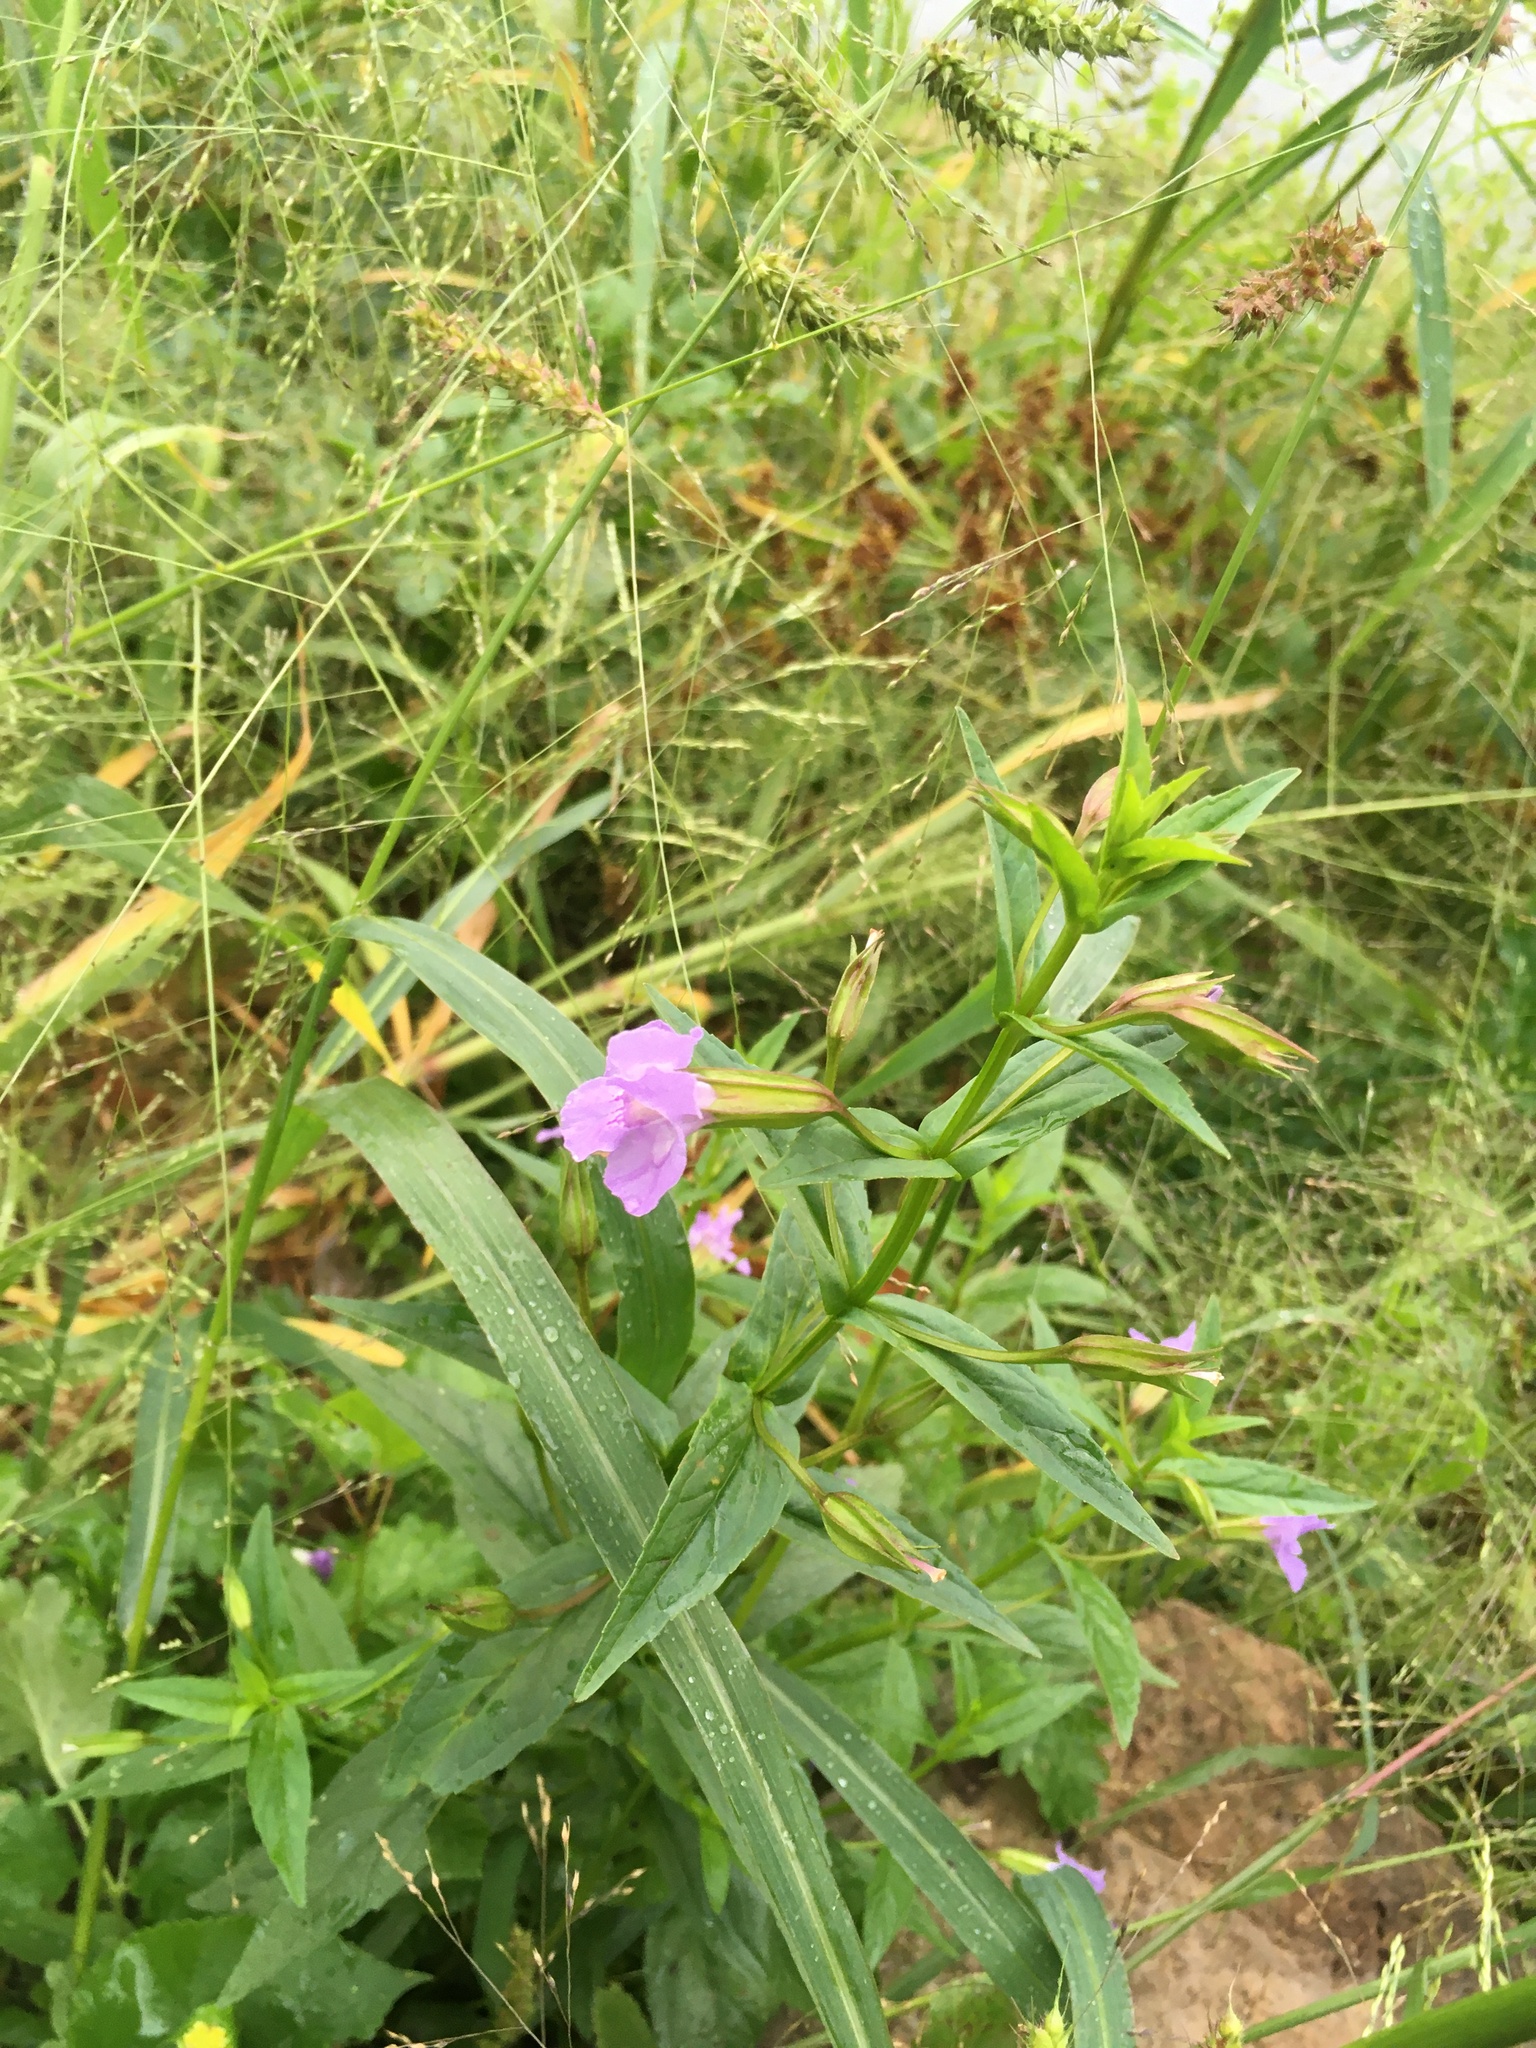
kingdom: Plantae
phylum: Tracheophyta
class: Magnoliopsida
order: Lamiales
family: Phrymaceae
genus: Mimulus
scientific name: Mimulus ringens
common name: Allegheny monkeyflower
